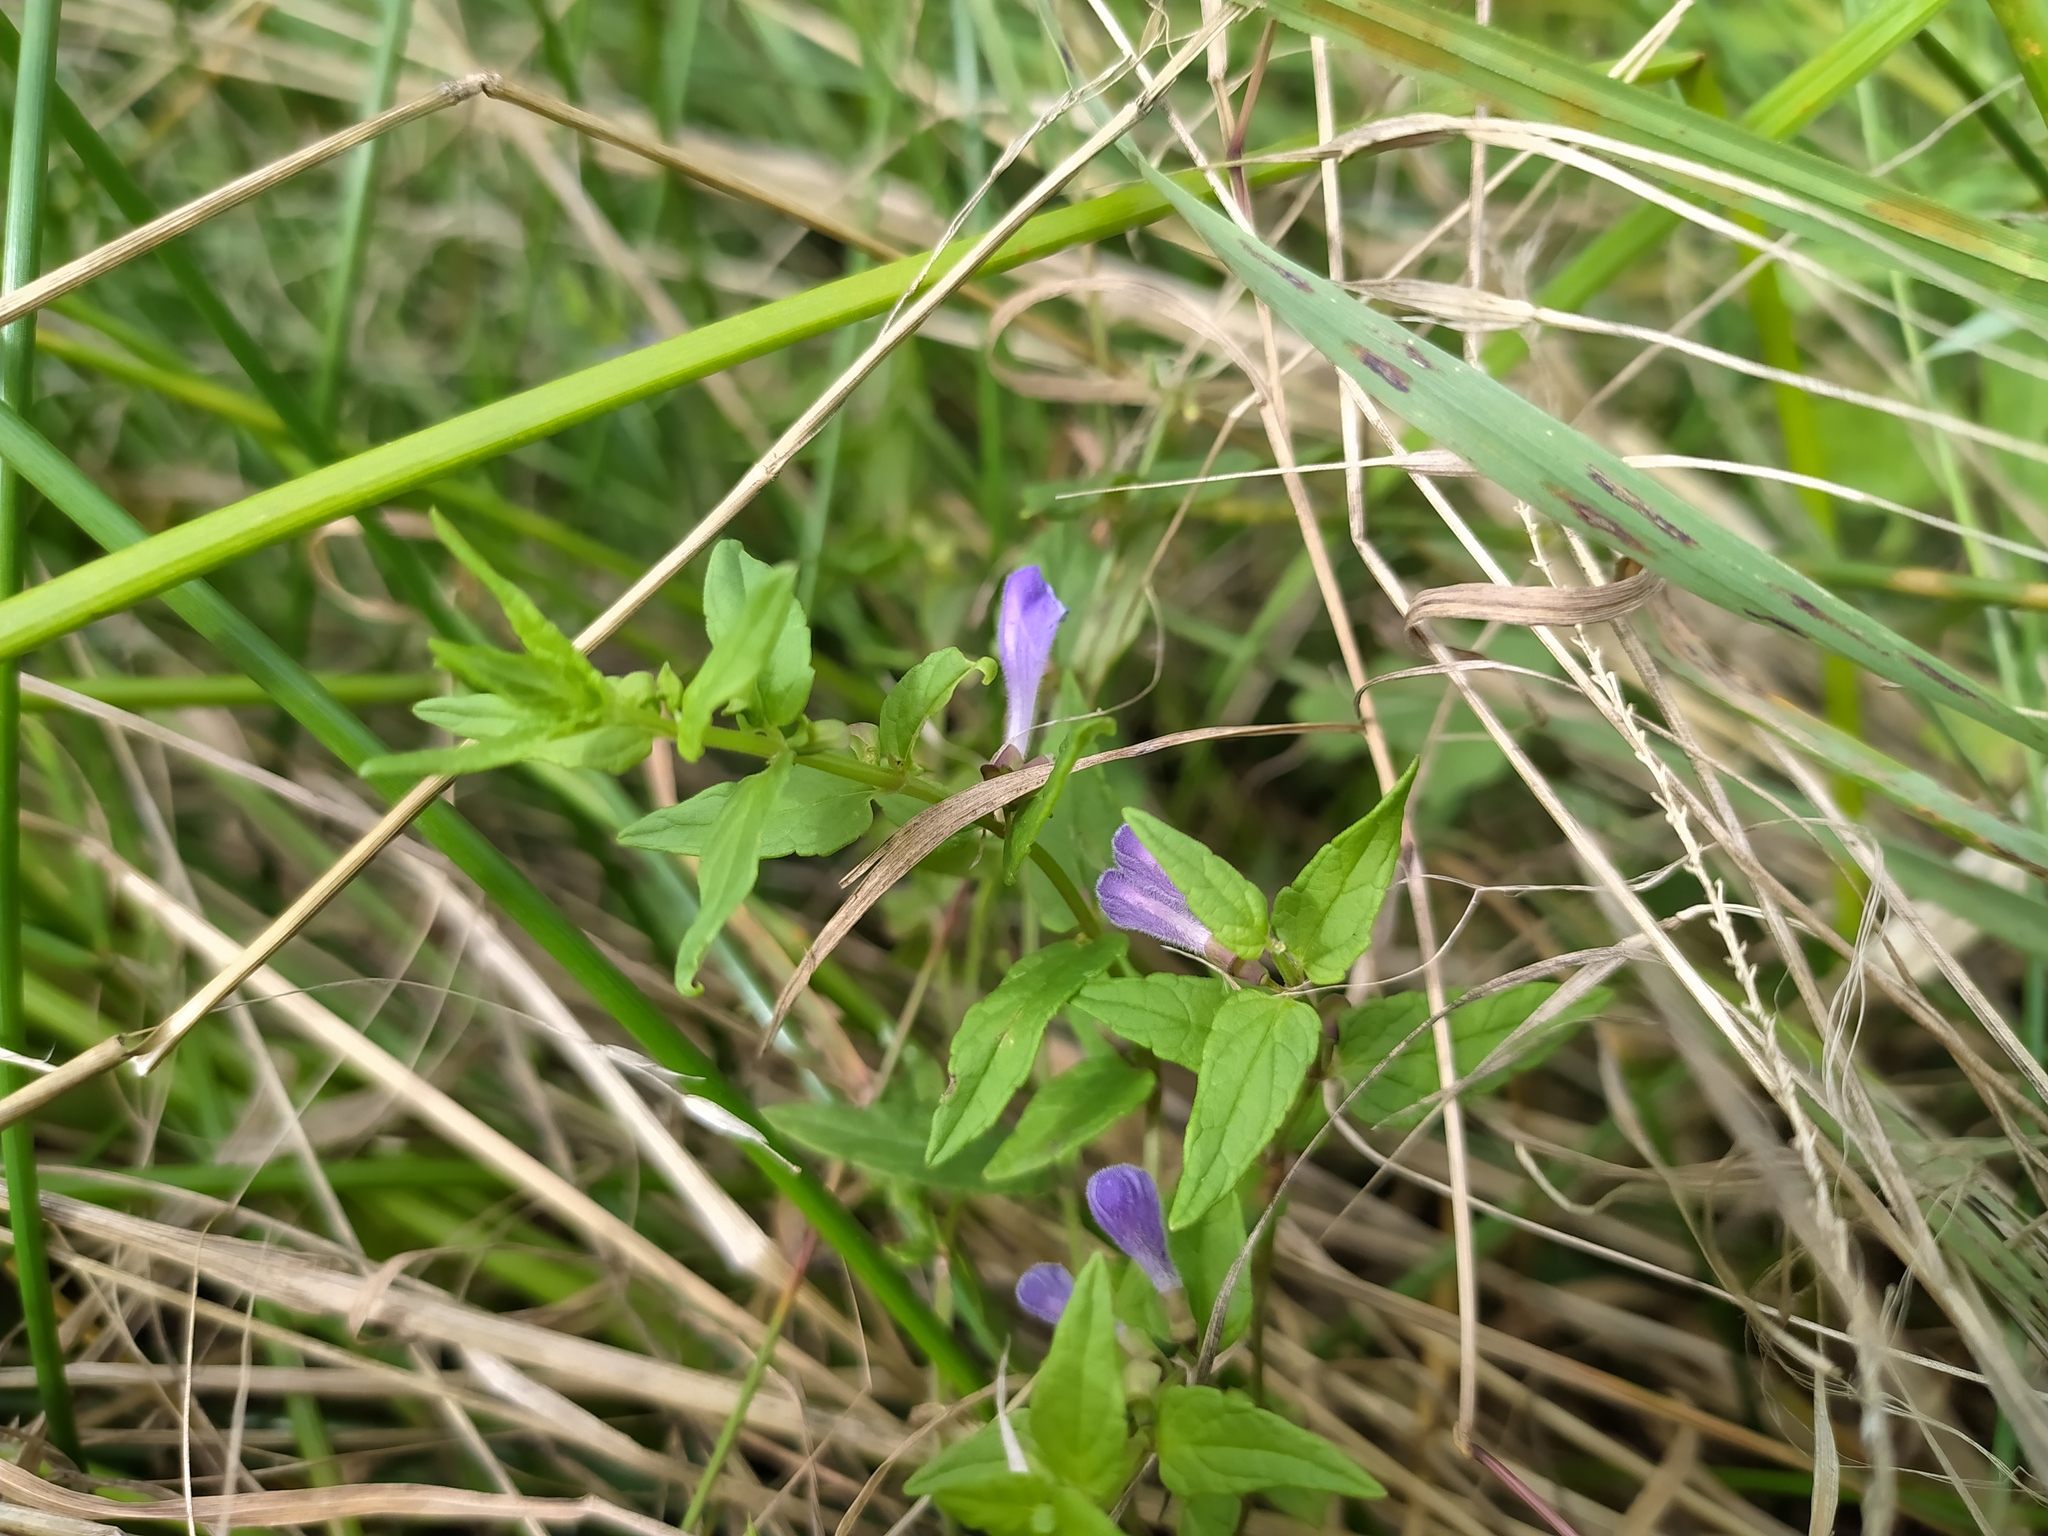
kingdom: Plantae
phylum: Tracheophyta
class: Magnoliopsida
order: Lamiales
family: Lamiaceae
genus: Scutellaria
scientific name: Scutellaria galericulata
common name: Skullcap
